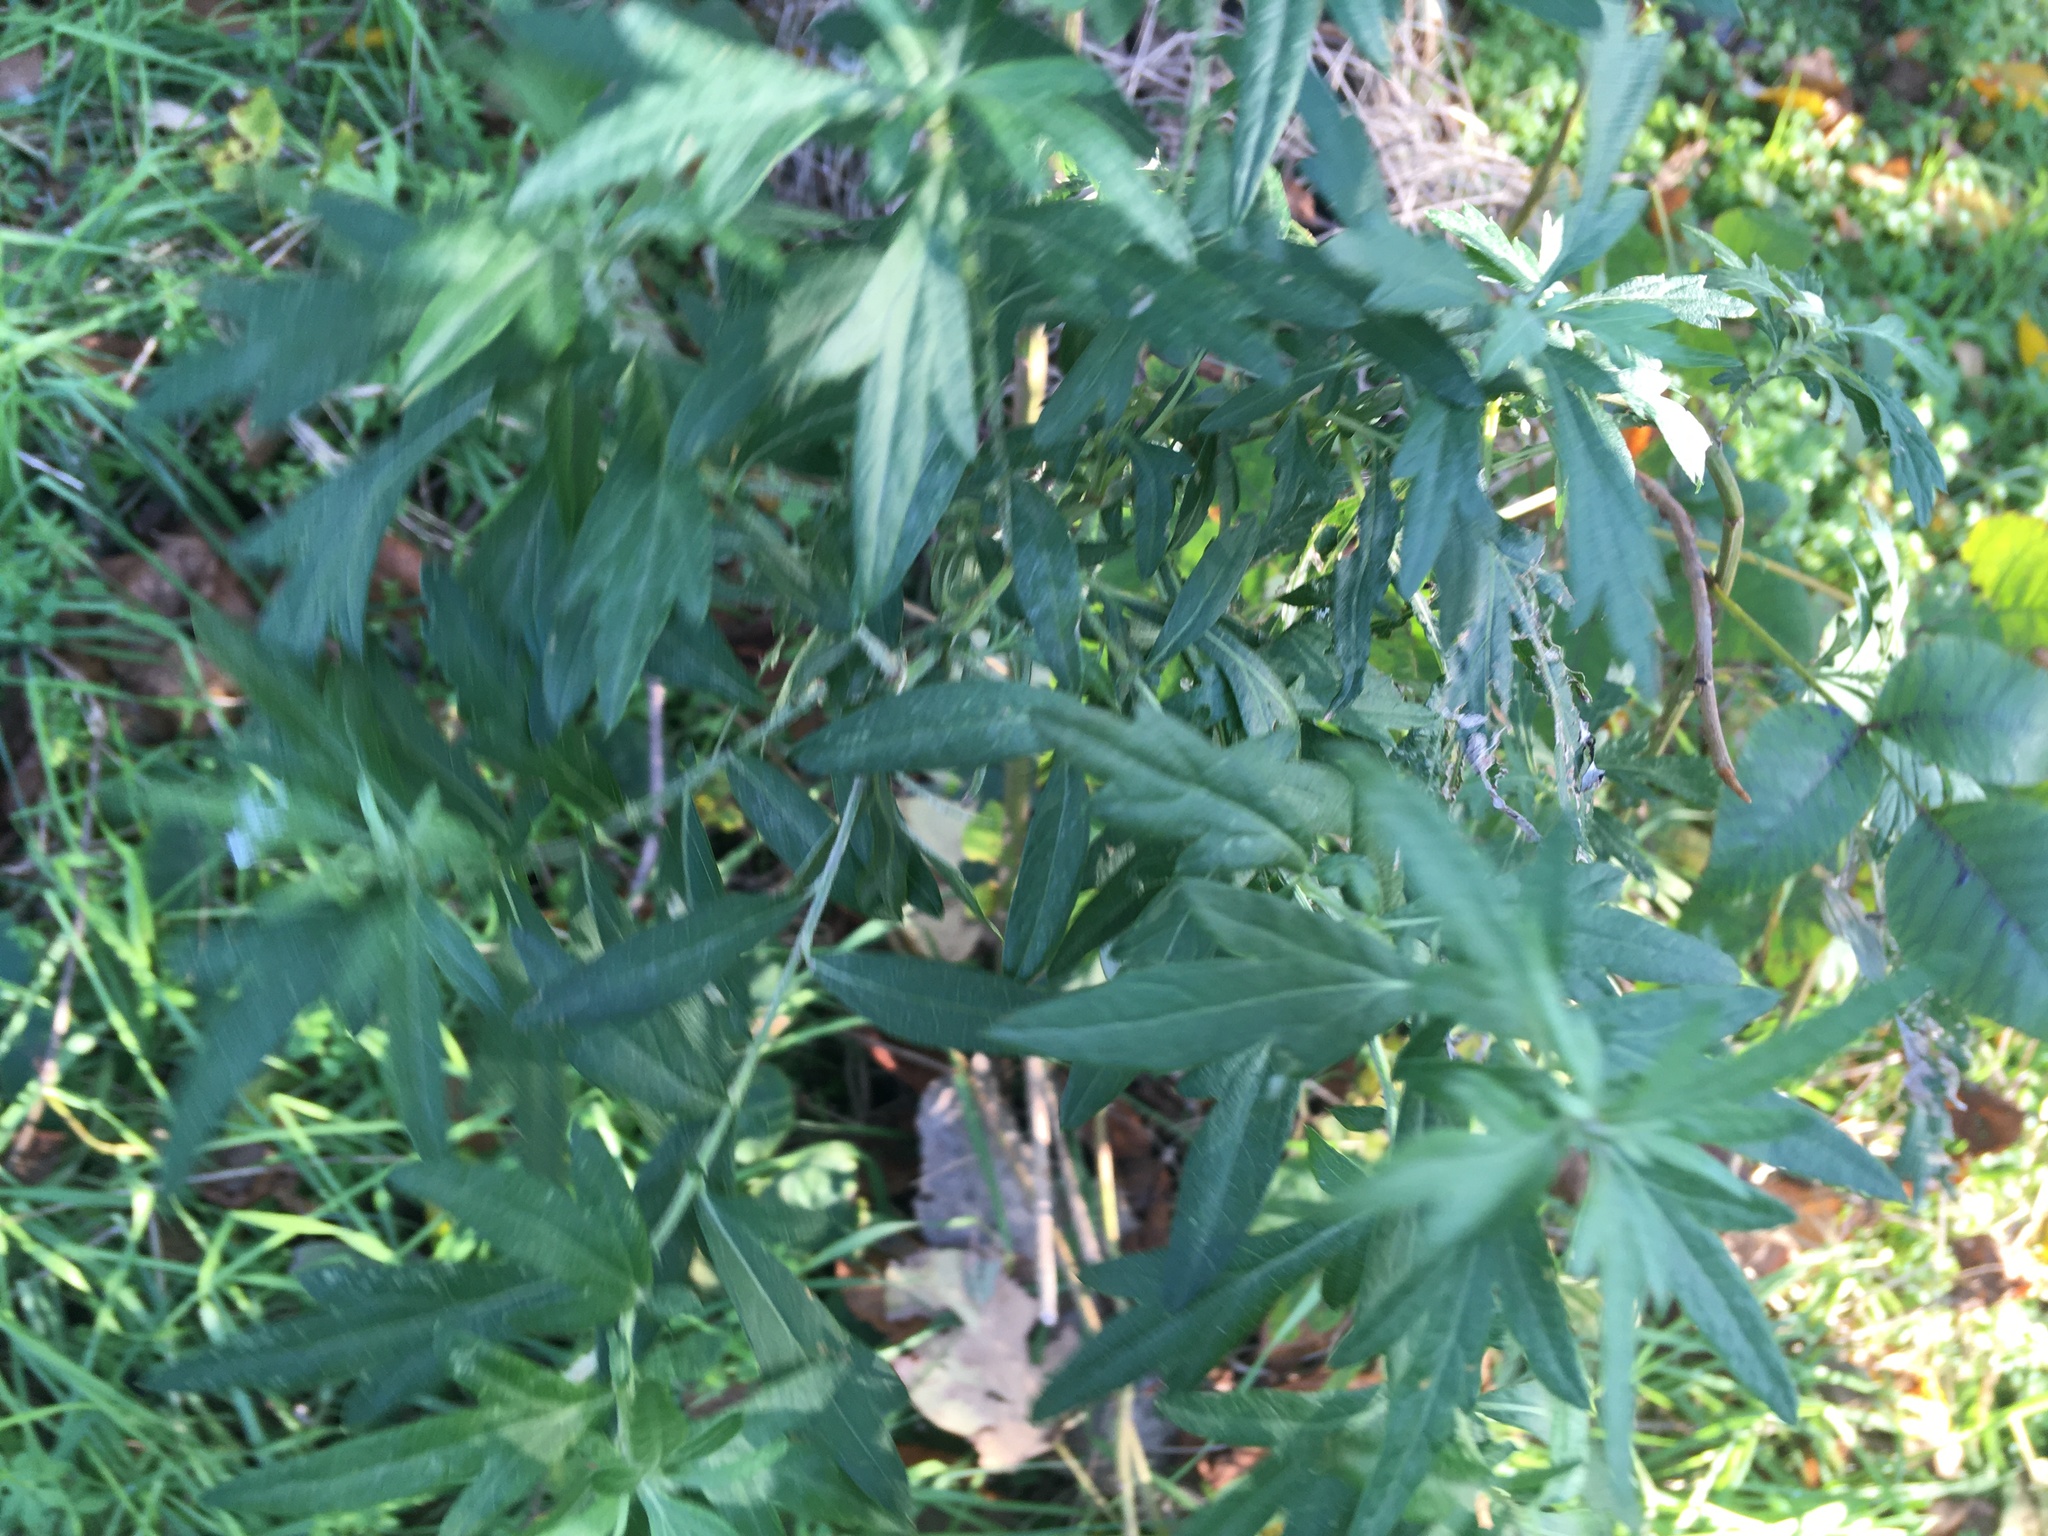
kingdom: Plantae
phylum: Tracheophyta
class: Magnoliopsida
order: Asterales
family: Asteraceae
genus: Artemisia
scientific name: Artemisia vulgaris
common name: Mugwort
